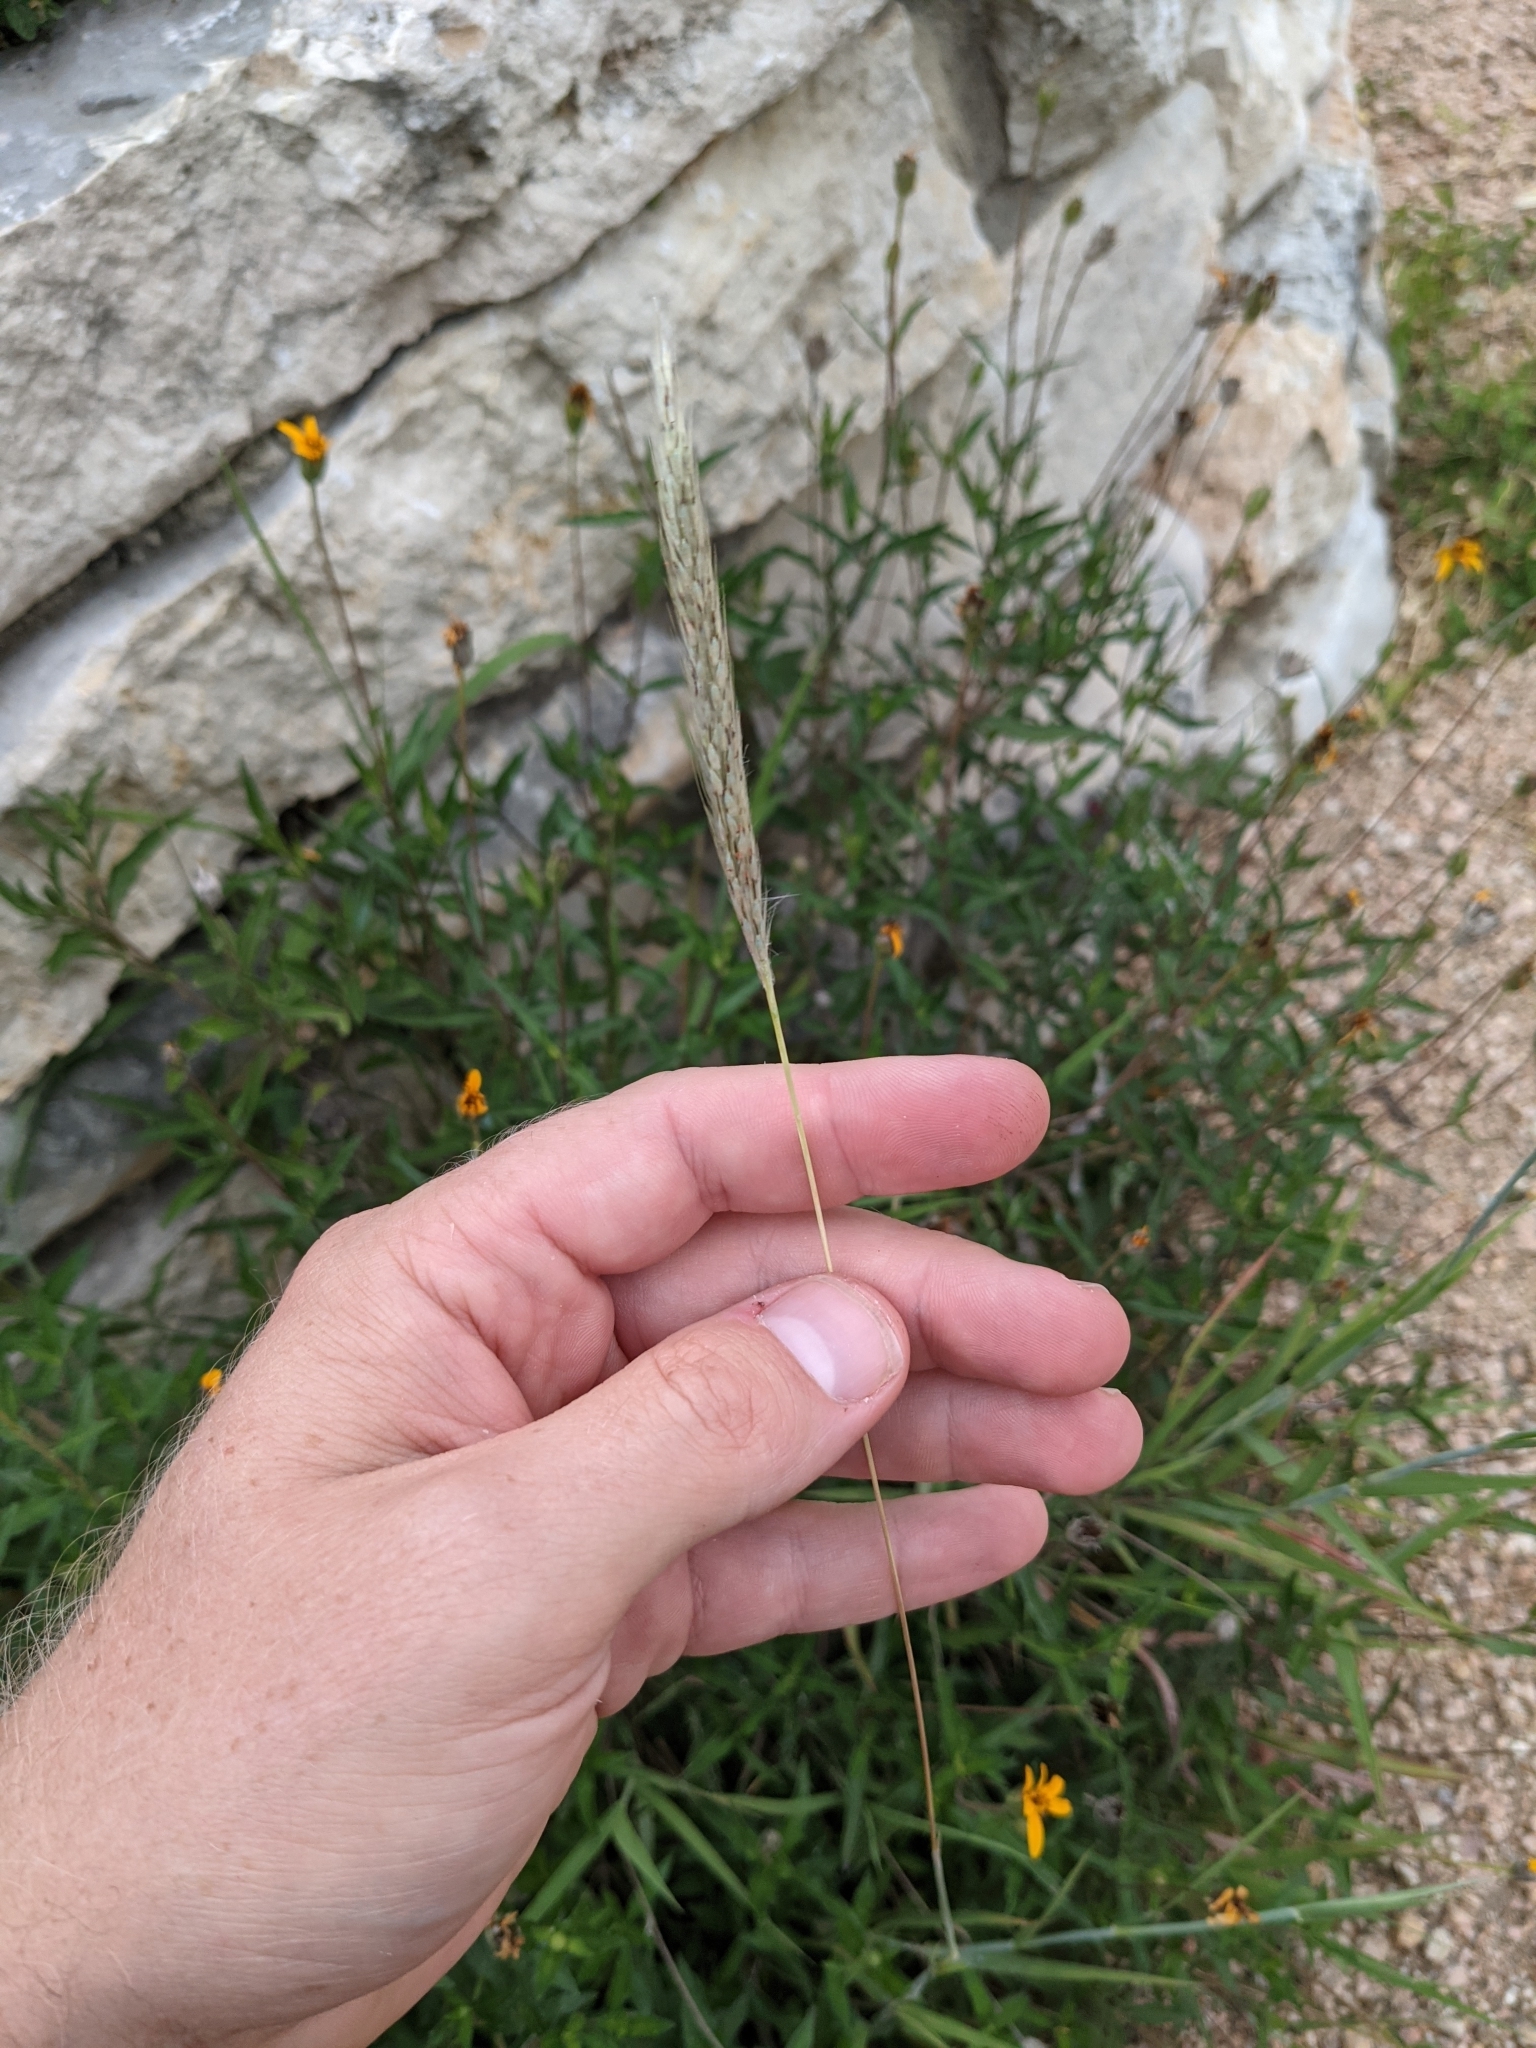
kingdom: Plantae
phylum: Tracheophyta
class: Liliopsida
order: Poales
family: Poaceae
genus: Bothriochloa
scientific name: Bothriochloa barbinodis
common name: Cane bluestem
